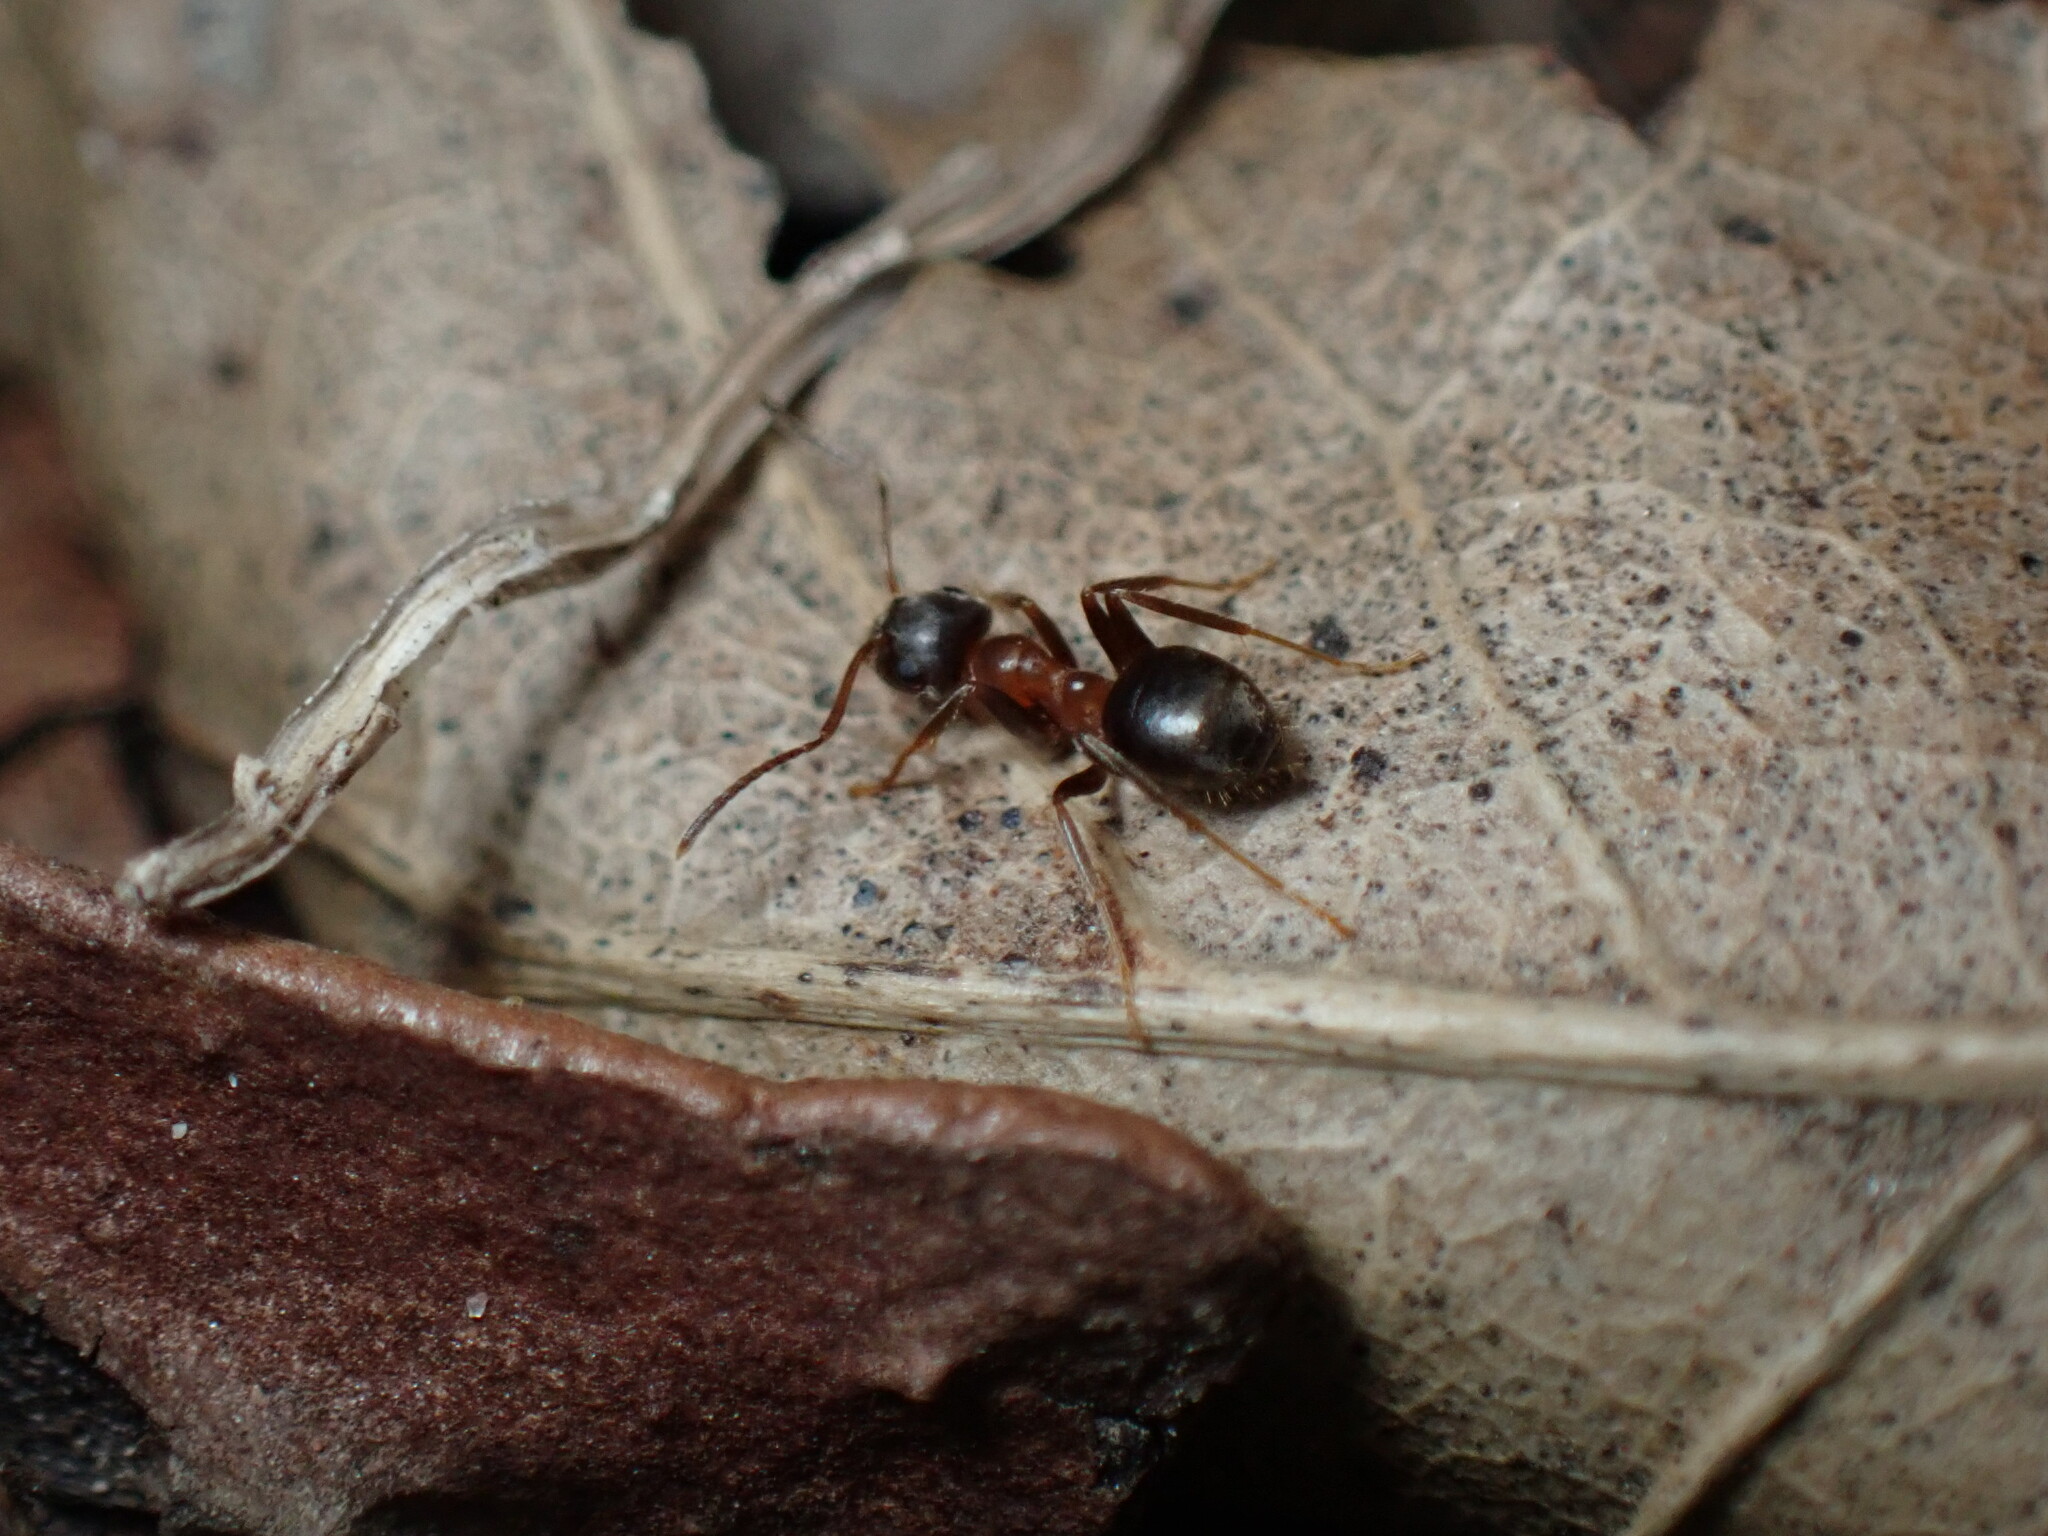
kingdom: Animalia
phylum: Arthropoda
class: Insecta
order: Hymenoptera
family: Formicidae
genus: Lasius
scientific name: Lasius emarginatus
